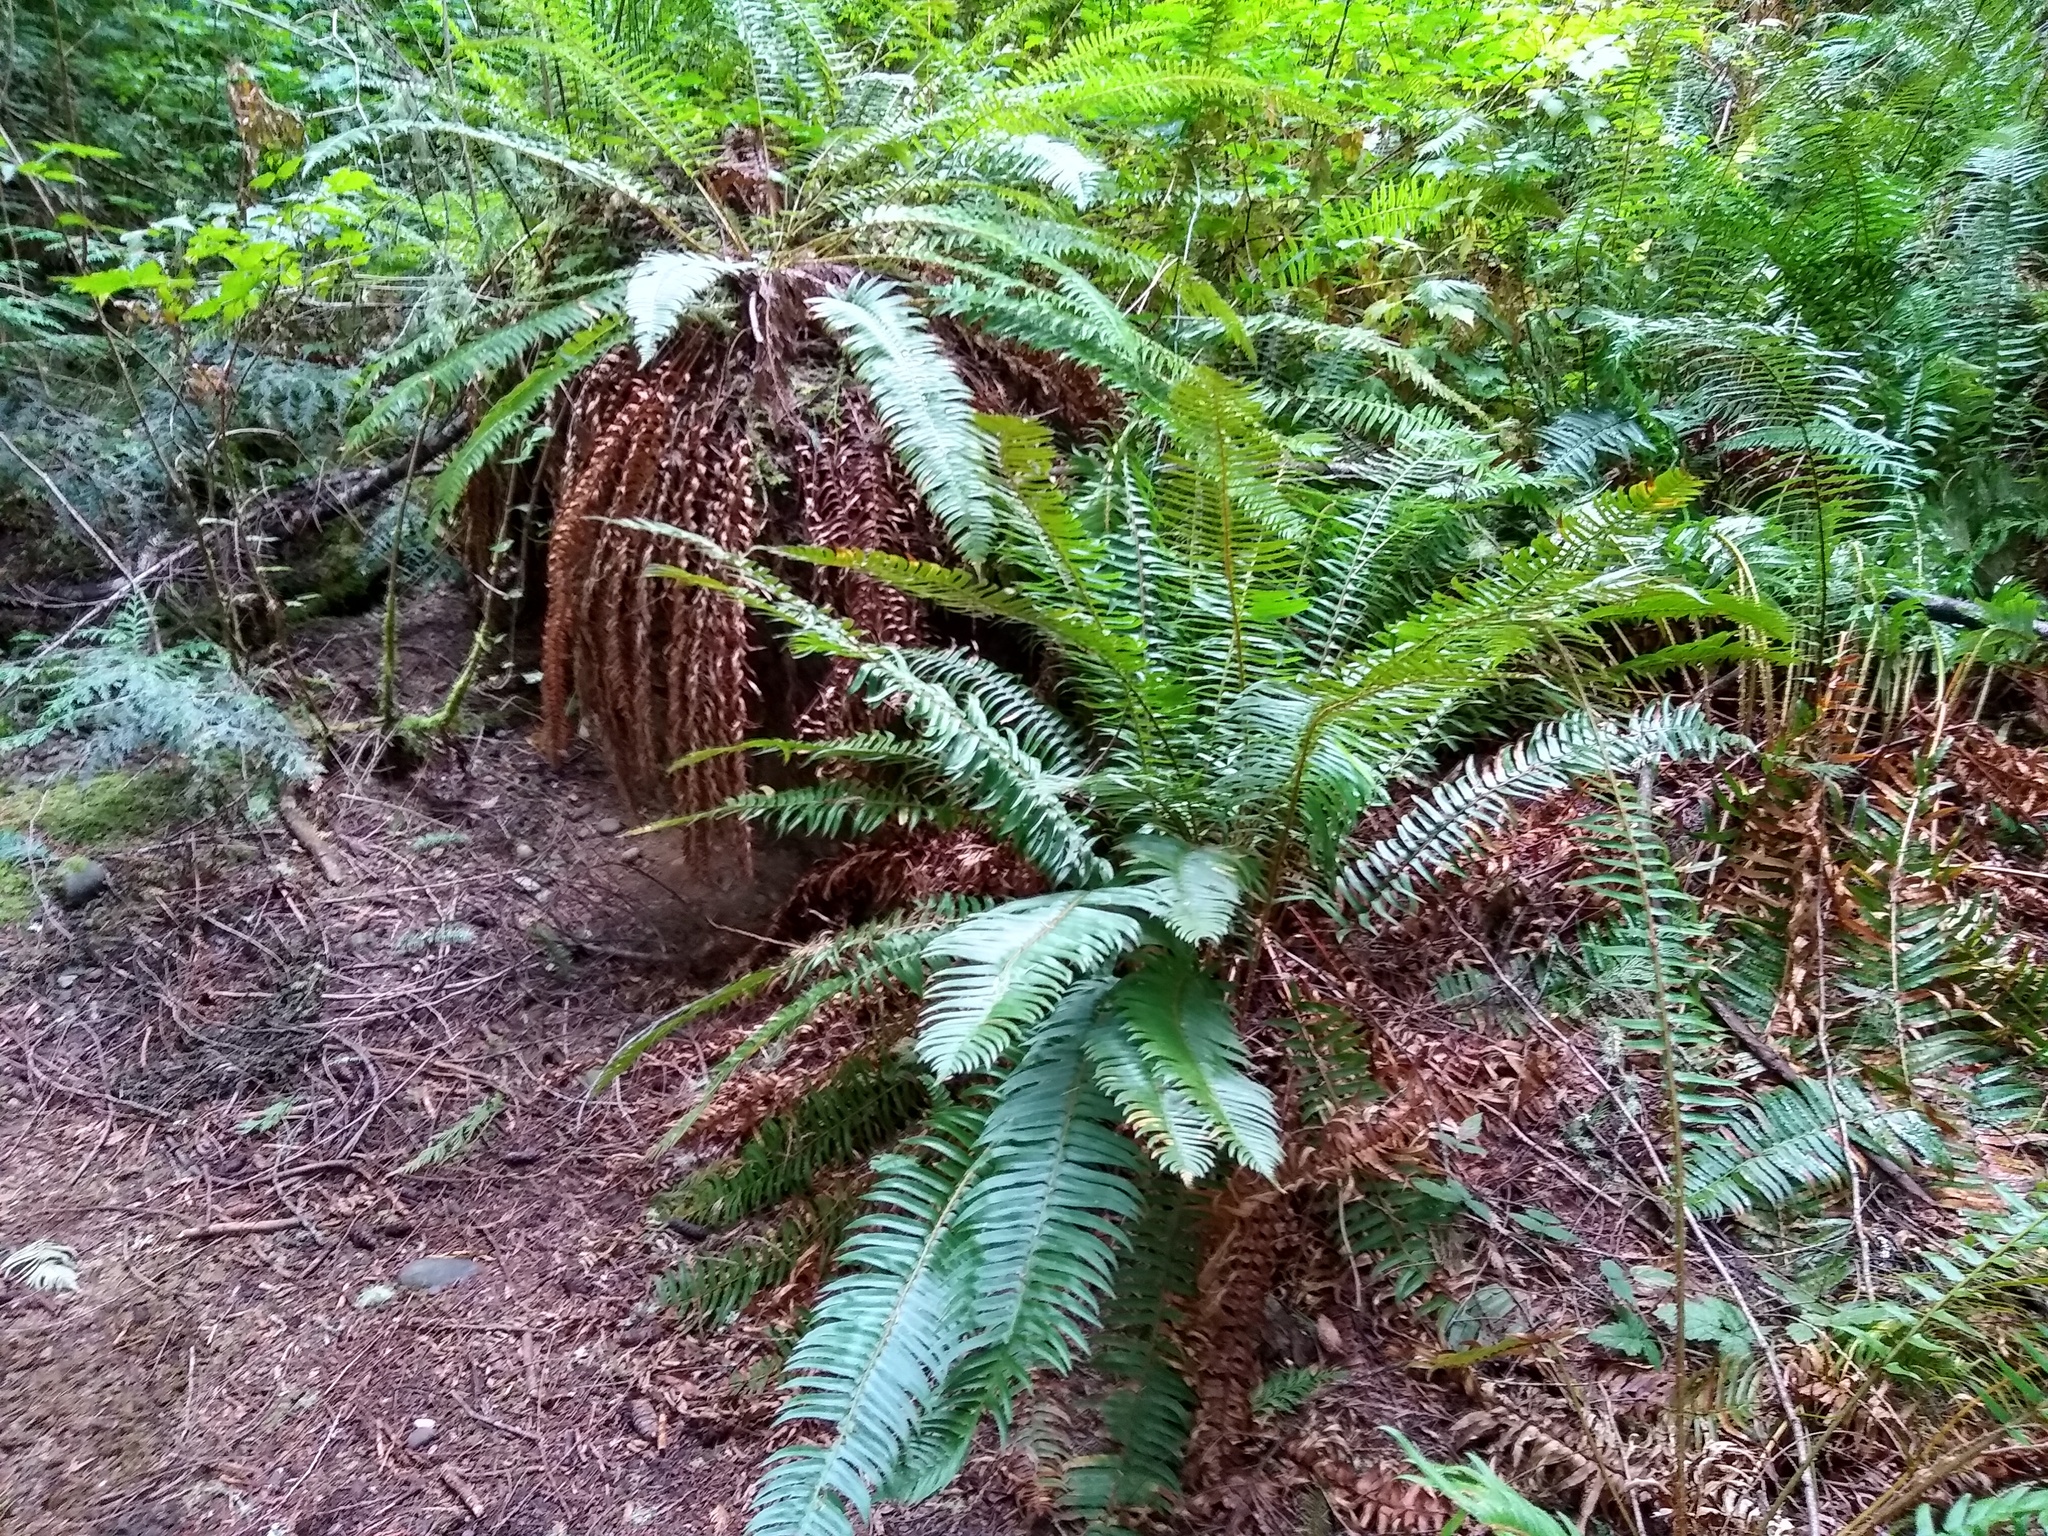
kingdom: Plantae
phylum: Tracheophyta
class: Polypodiopsida
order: Polypodiales
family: Dryopteridaceae
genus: Polystichum
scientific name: Polystichum munitum
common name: Western sword-fern
